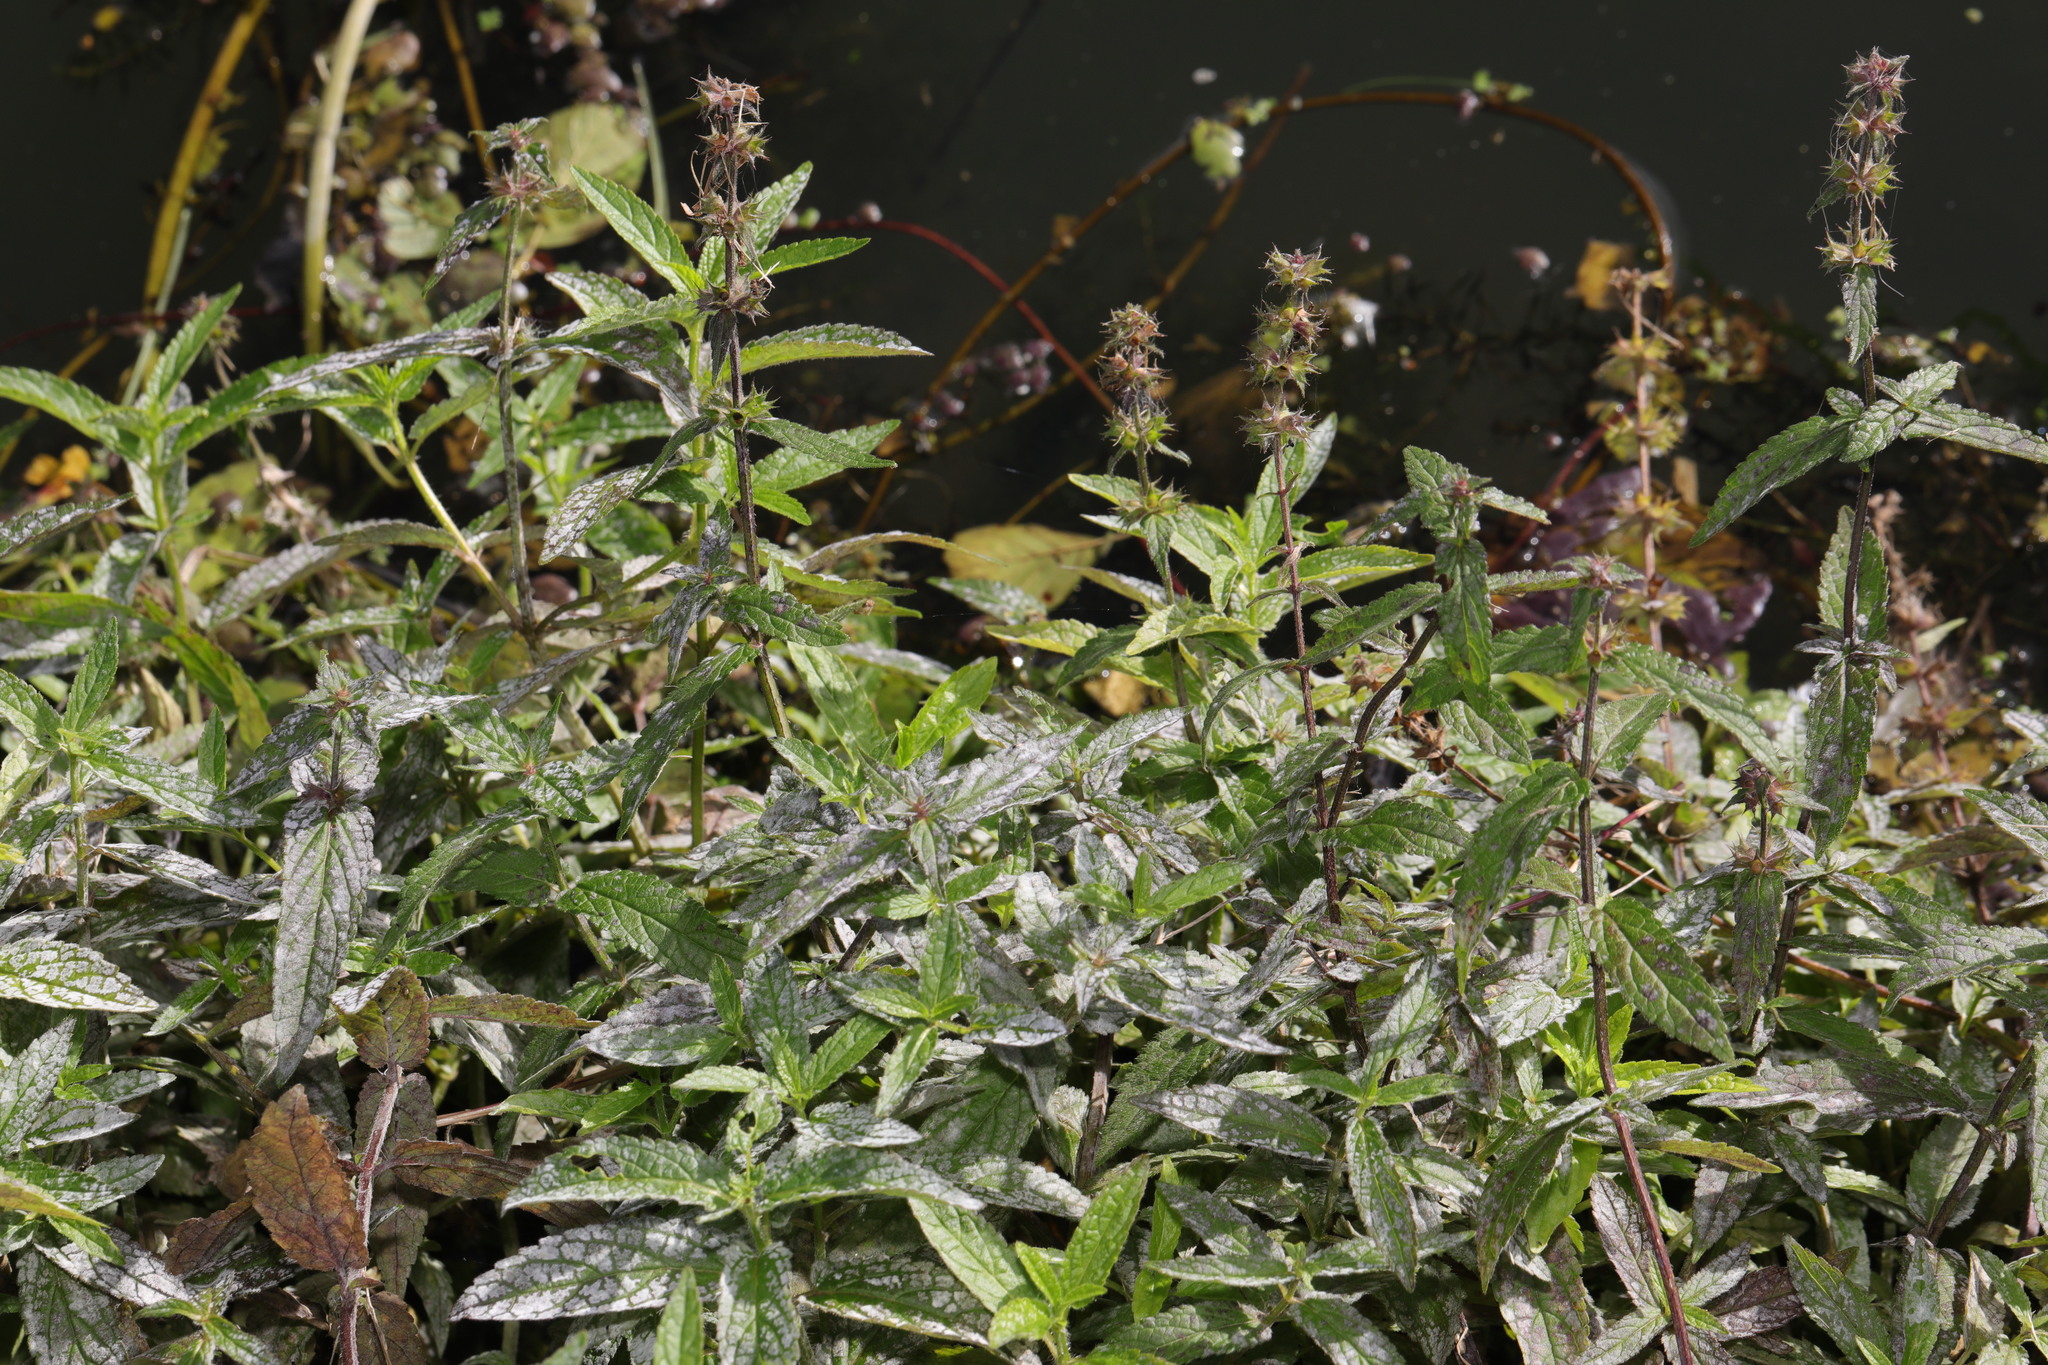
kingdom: Plantae
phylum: Tracheophyta
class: Magnoliopsida
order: Lamiales
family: Lamiaceae
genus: Stachys
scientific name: Stachys palustris
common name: Marsh woundwort
